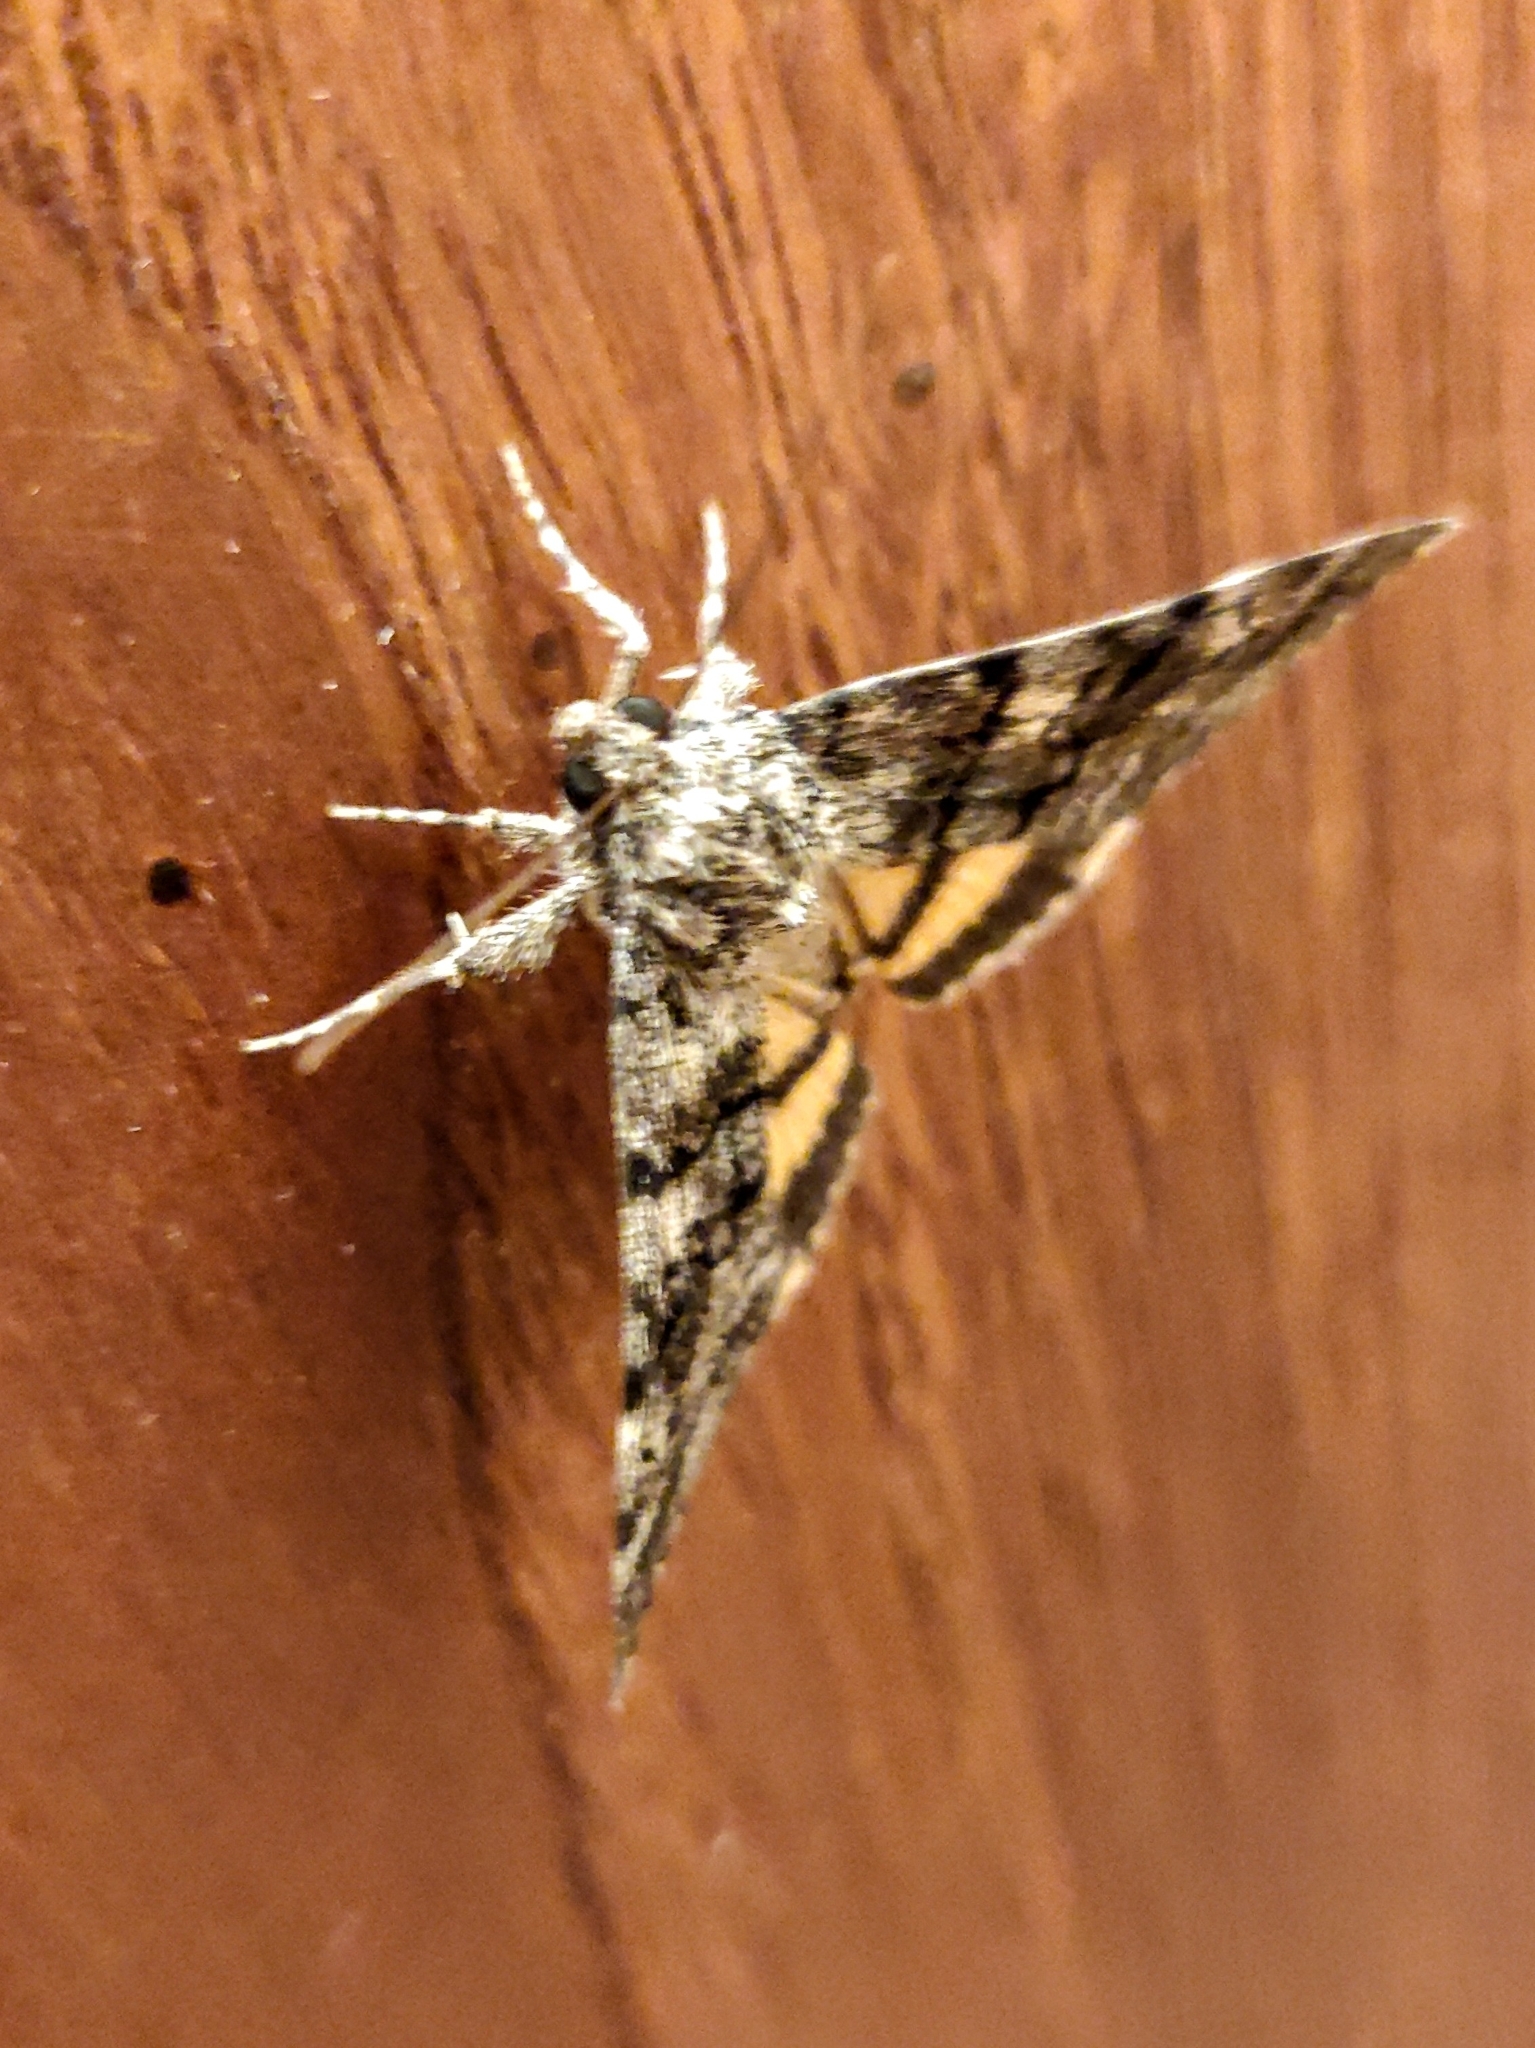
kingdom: Animalia
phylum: Arthropoda
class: Insecta
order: Lepidoptera
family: Erebidae
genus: Catocala
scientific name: Catocala nymphagoga
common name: Oak yellow underwing
